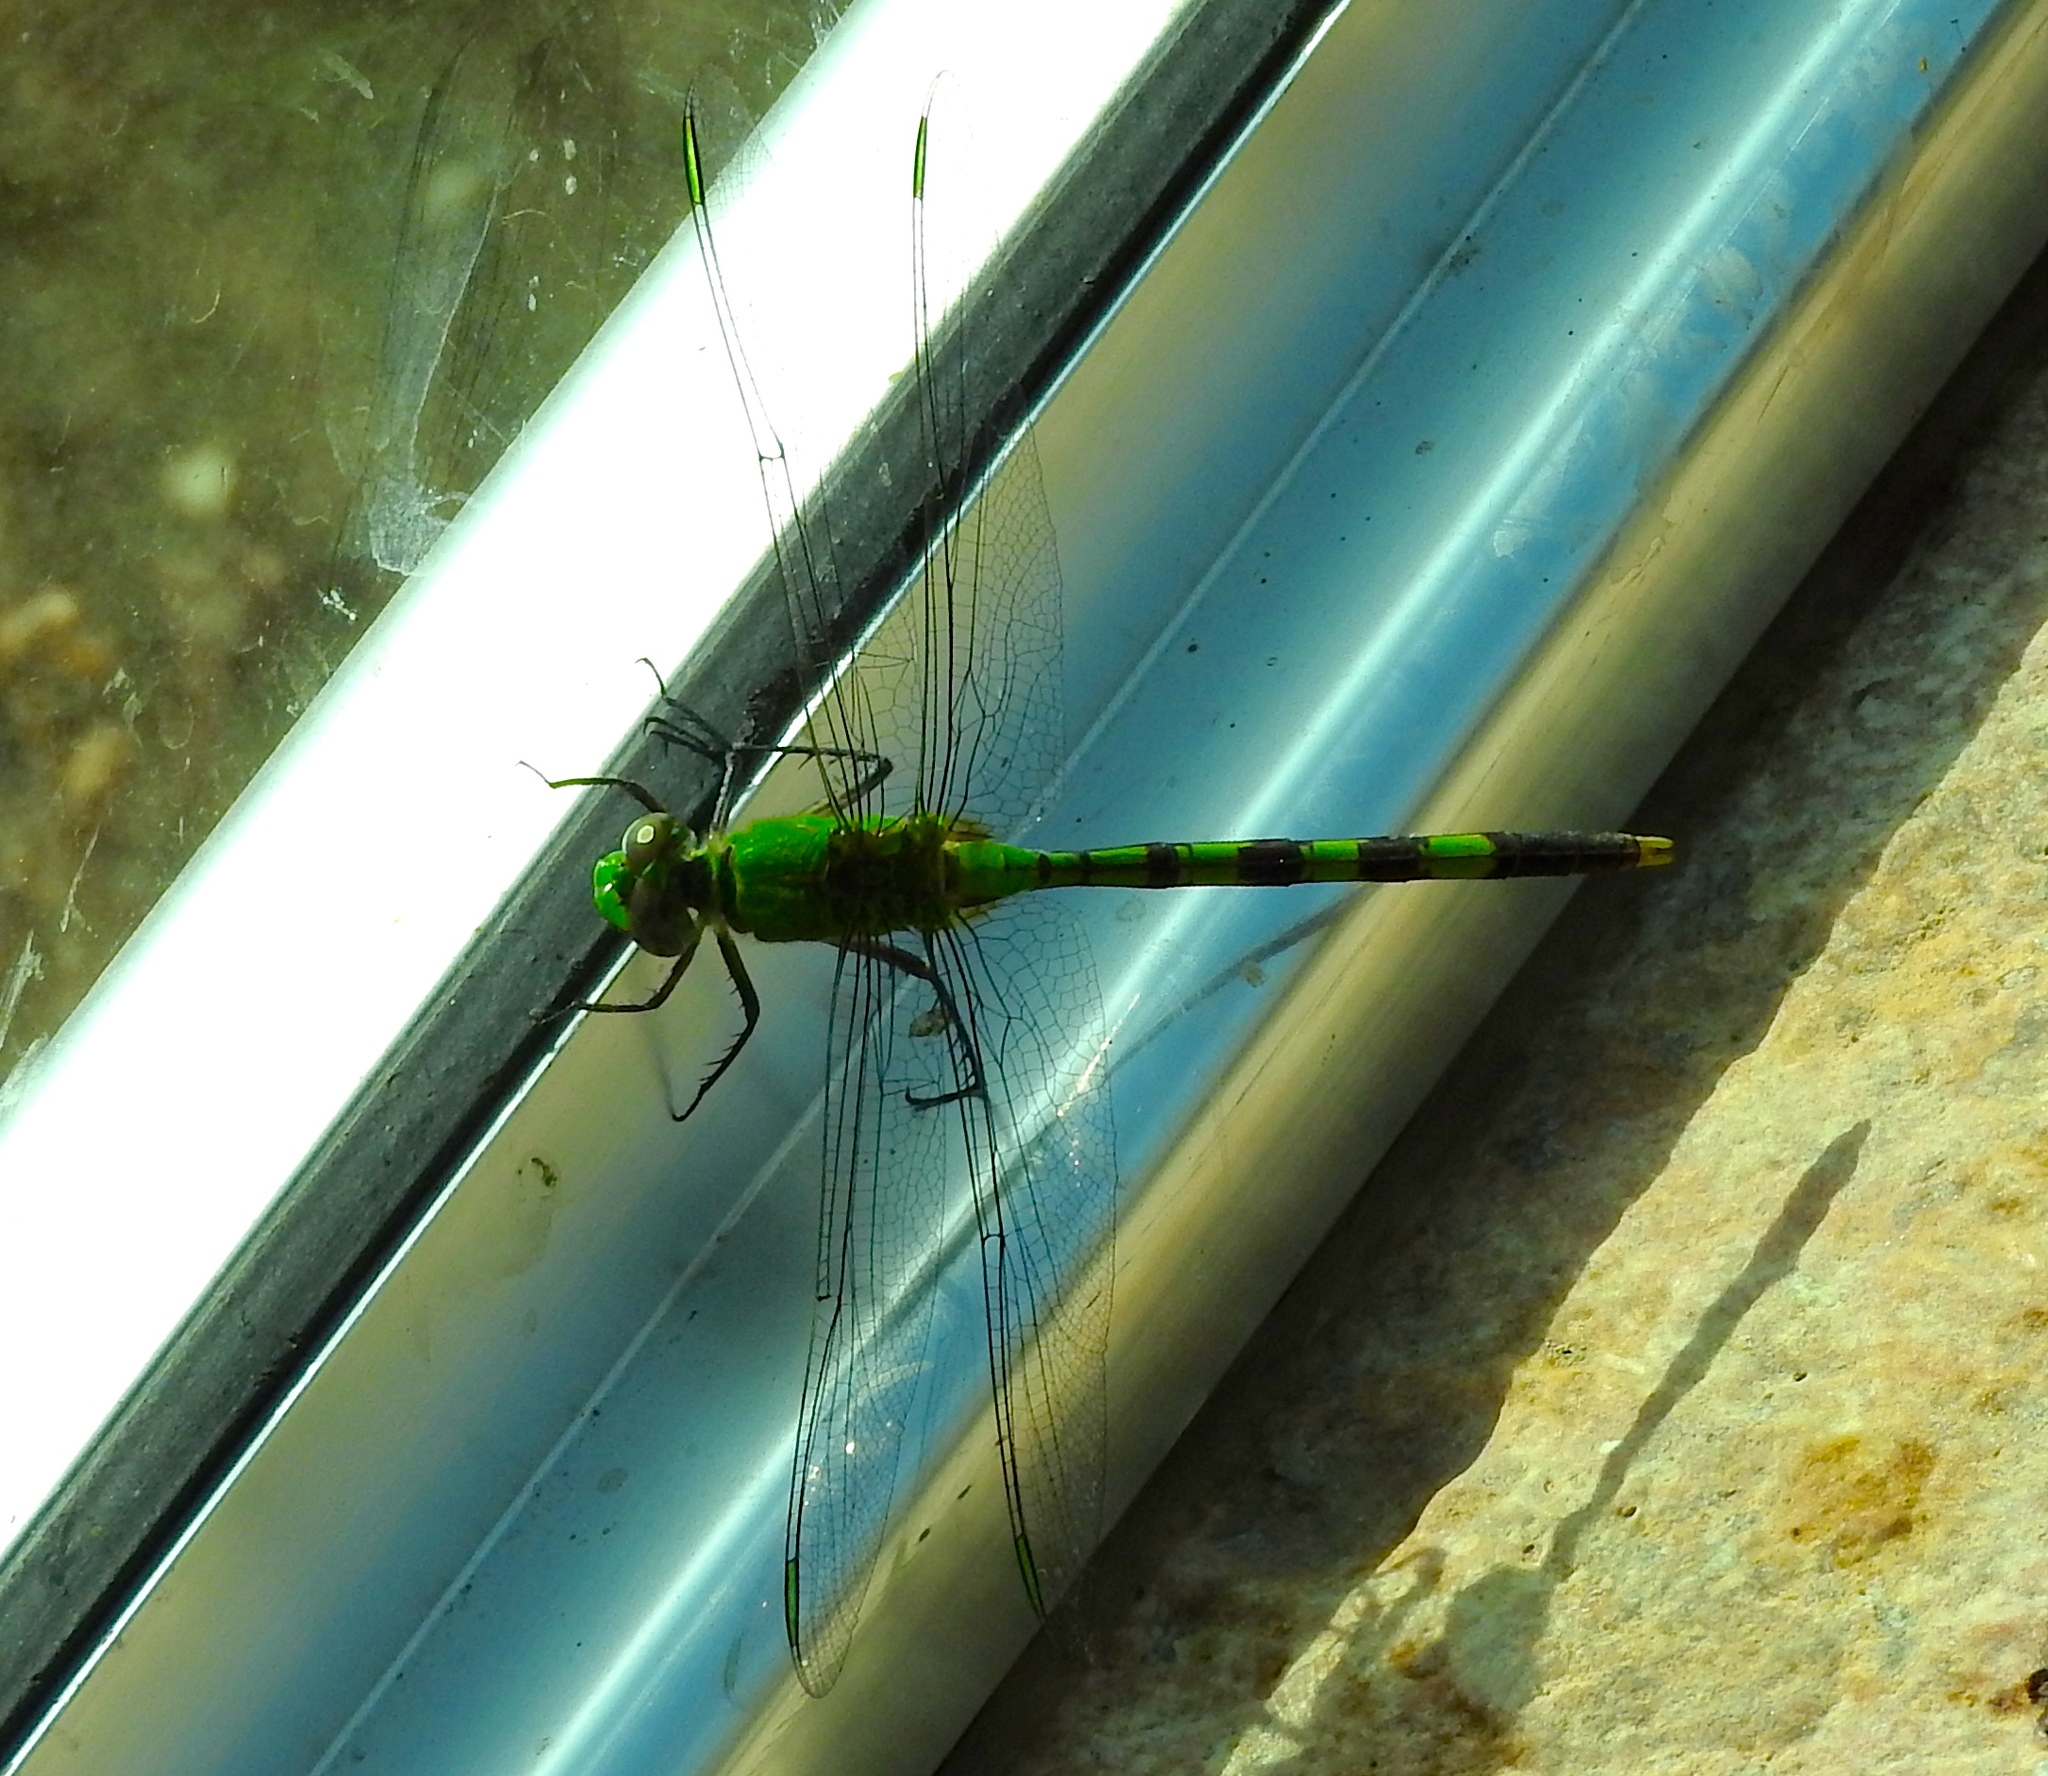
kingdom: Animalia
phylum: Arthropoda
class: Insecta
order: Odonata
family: Libellulidae
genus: Erythemis
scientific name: Erythemis vesiculosa
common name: Great pondhawk
